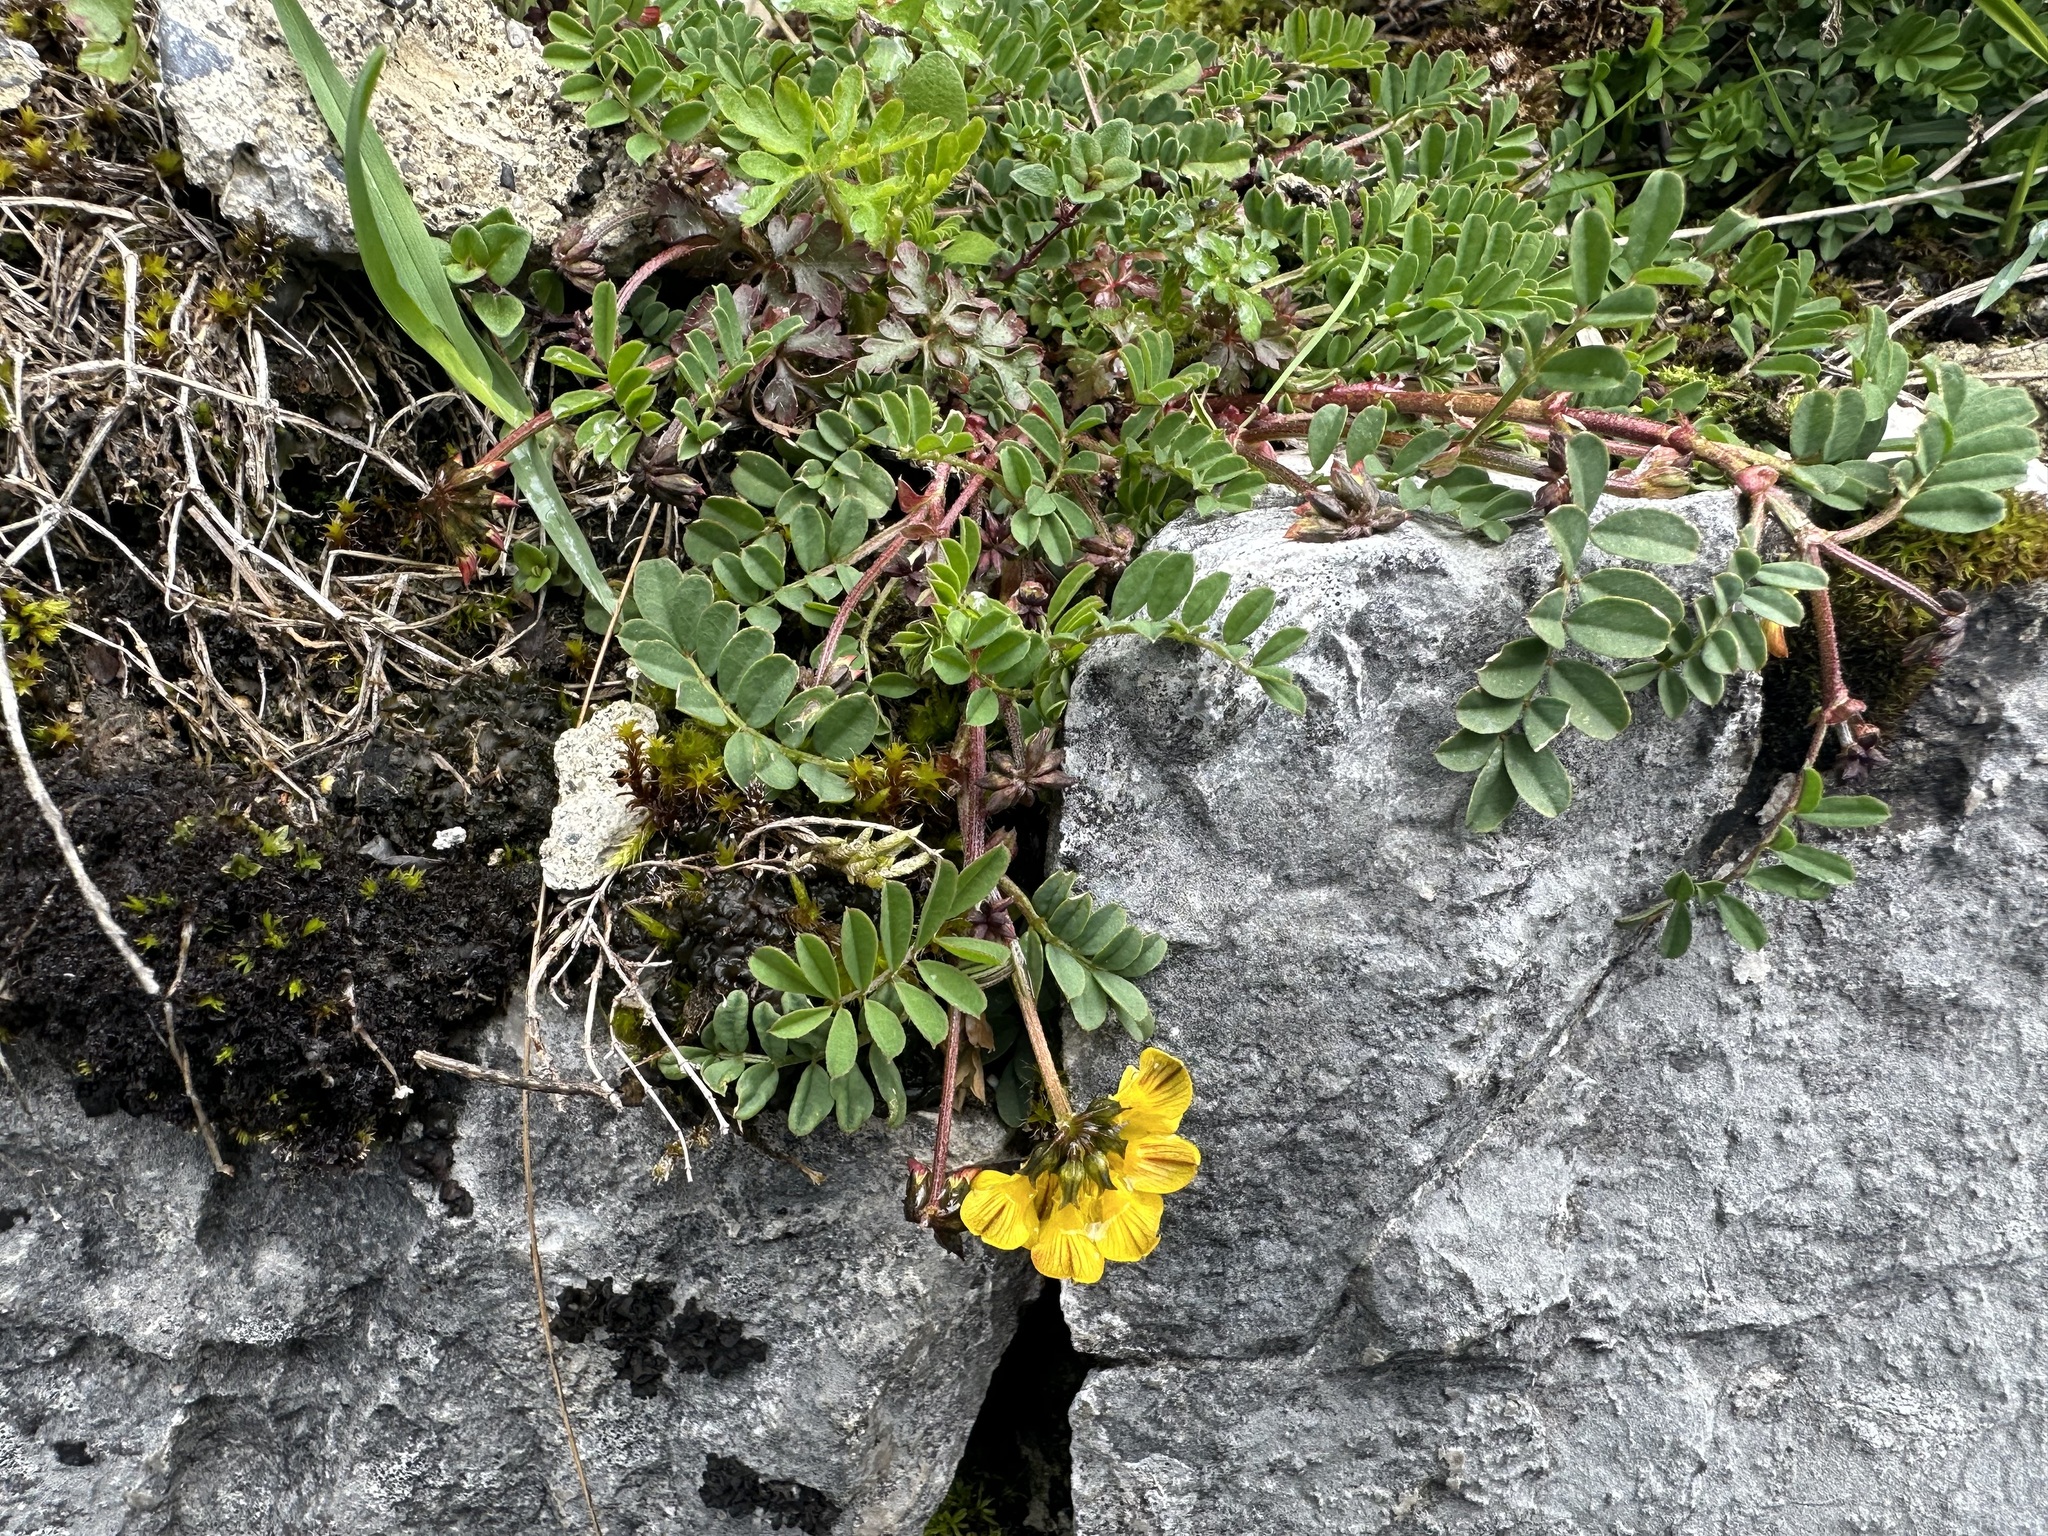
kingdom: Plantae
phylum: Tracheophyta
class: Magnoliopsida
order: Fabales
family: Fabaceae
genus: Hippocrepis
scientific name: Hippocrepis comosa
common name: Horseshoe vetch
